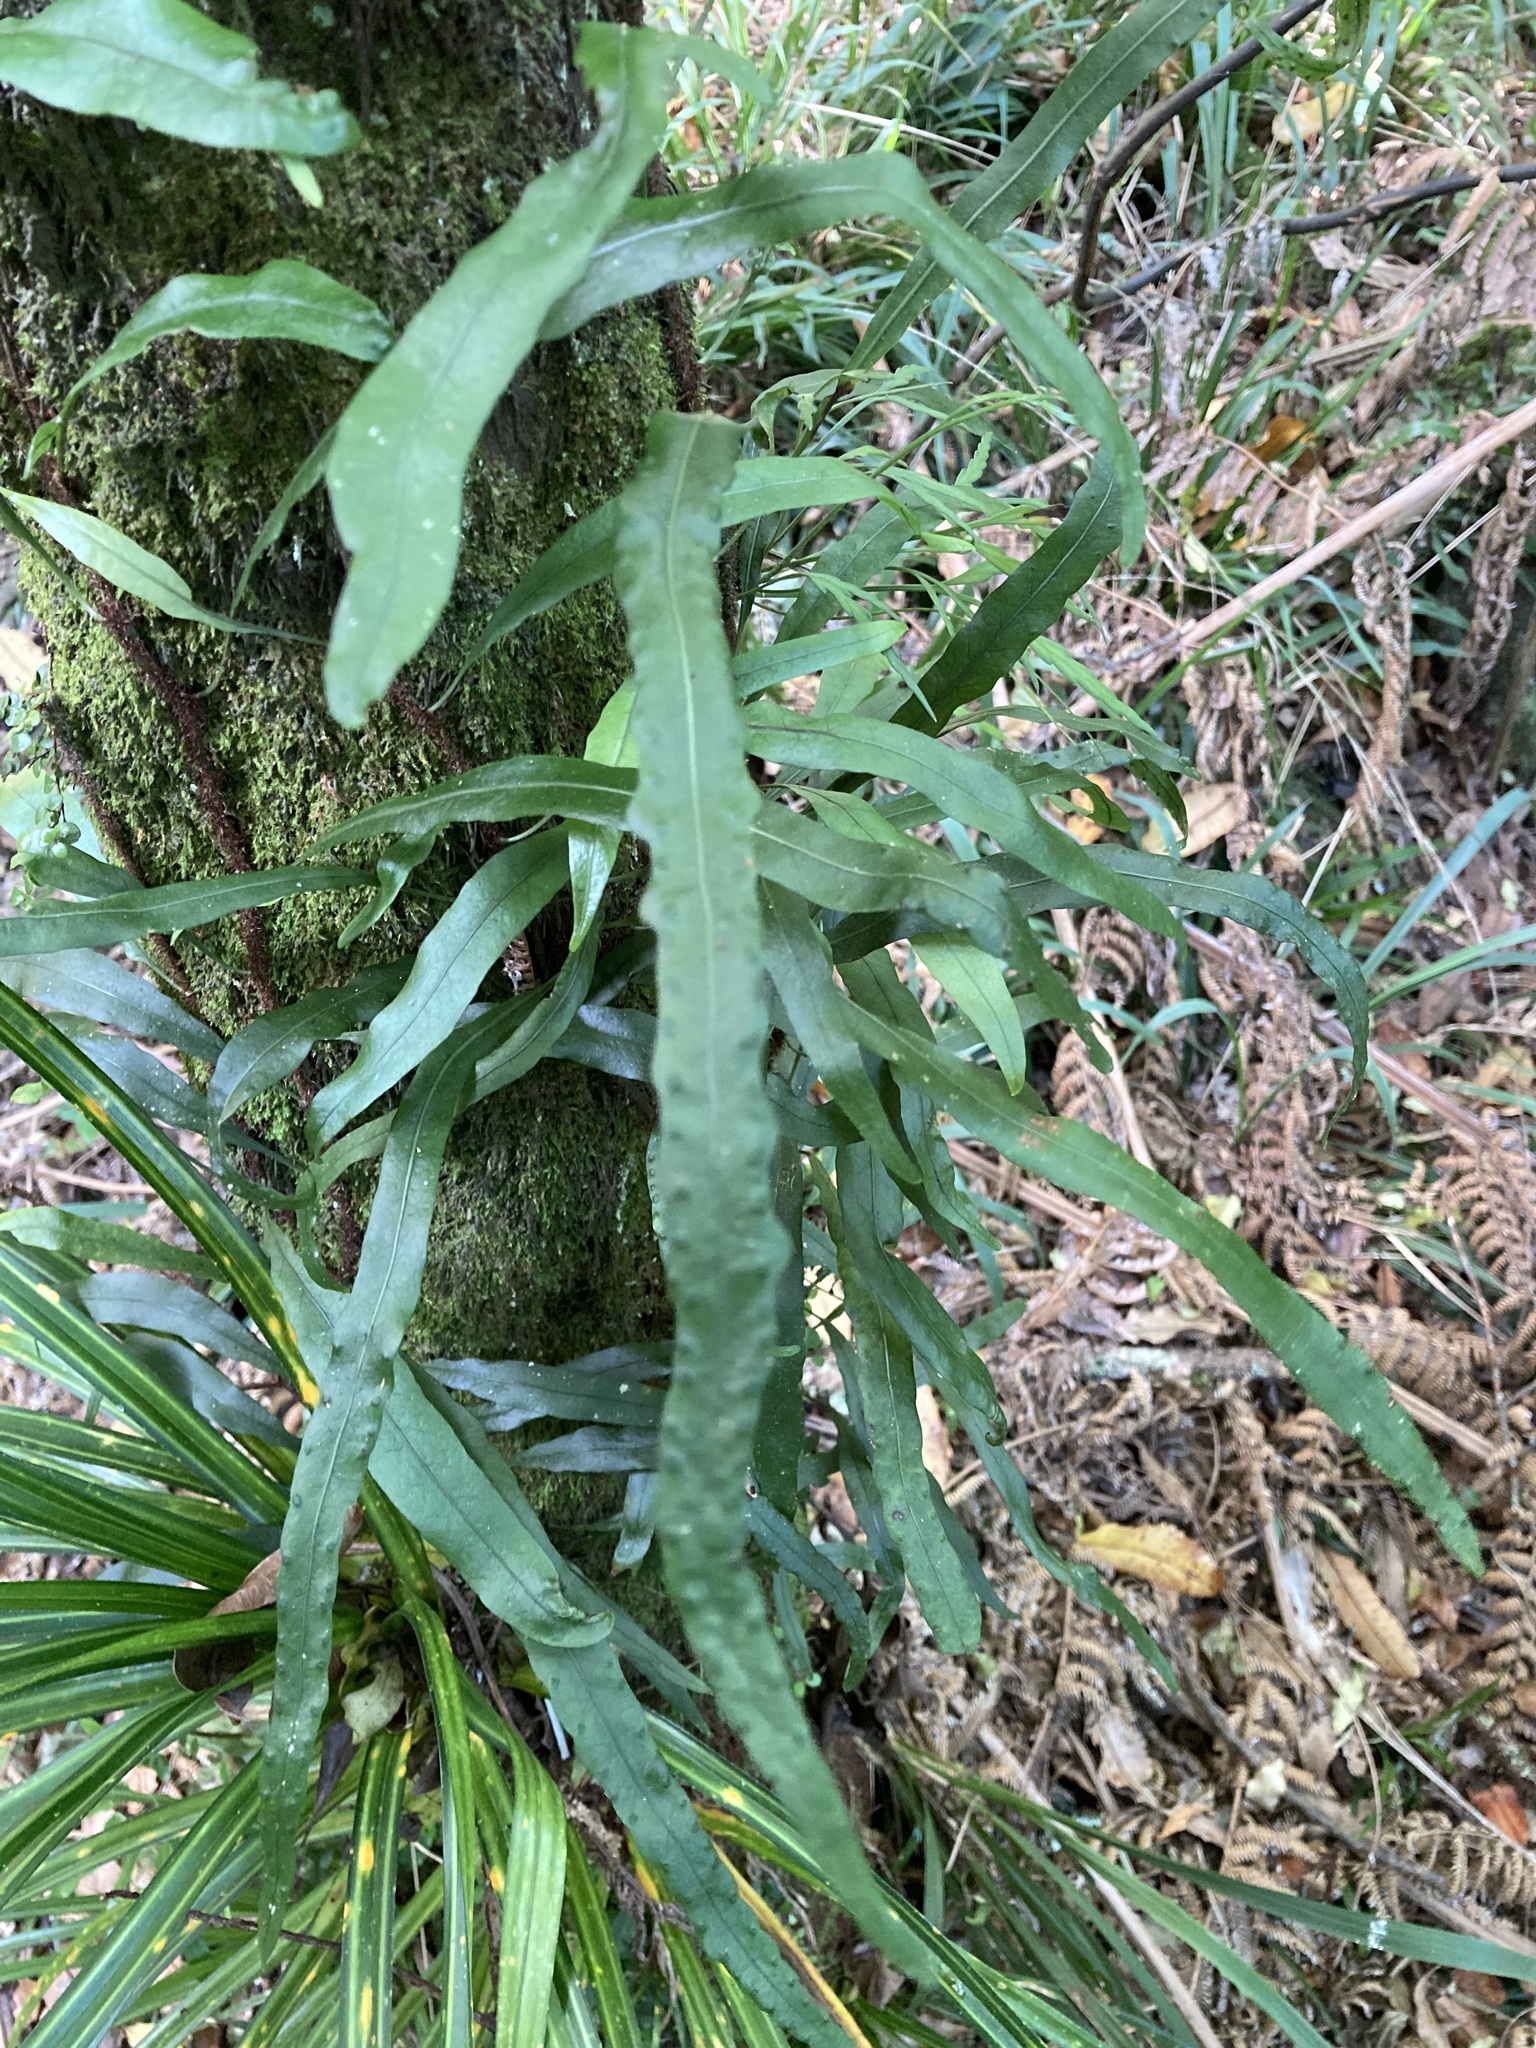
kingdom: Plantae
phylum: Tracheophyta
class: Polypodiopsida
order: Polypodiales
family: Polypodiaceae
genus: Lecanopteris
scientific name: Lecanopteris scandens
